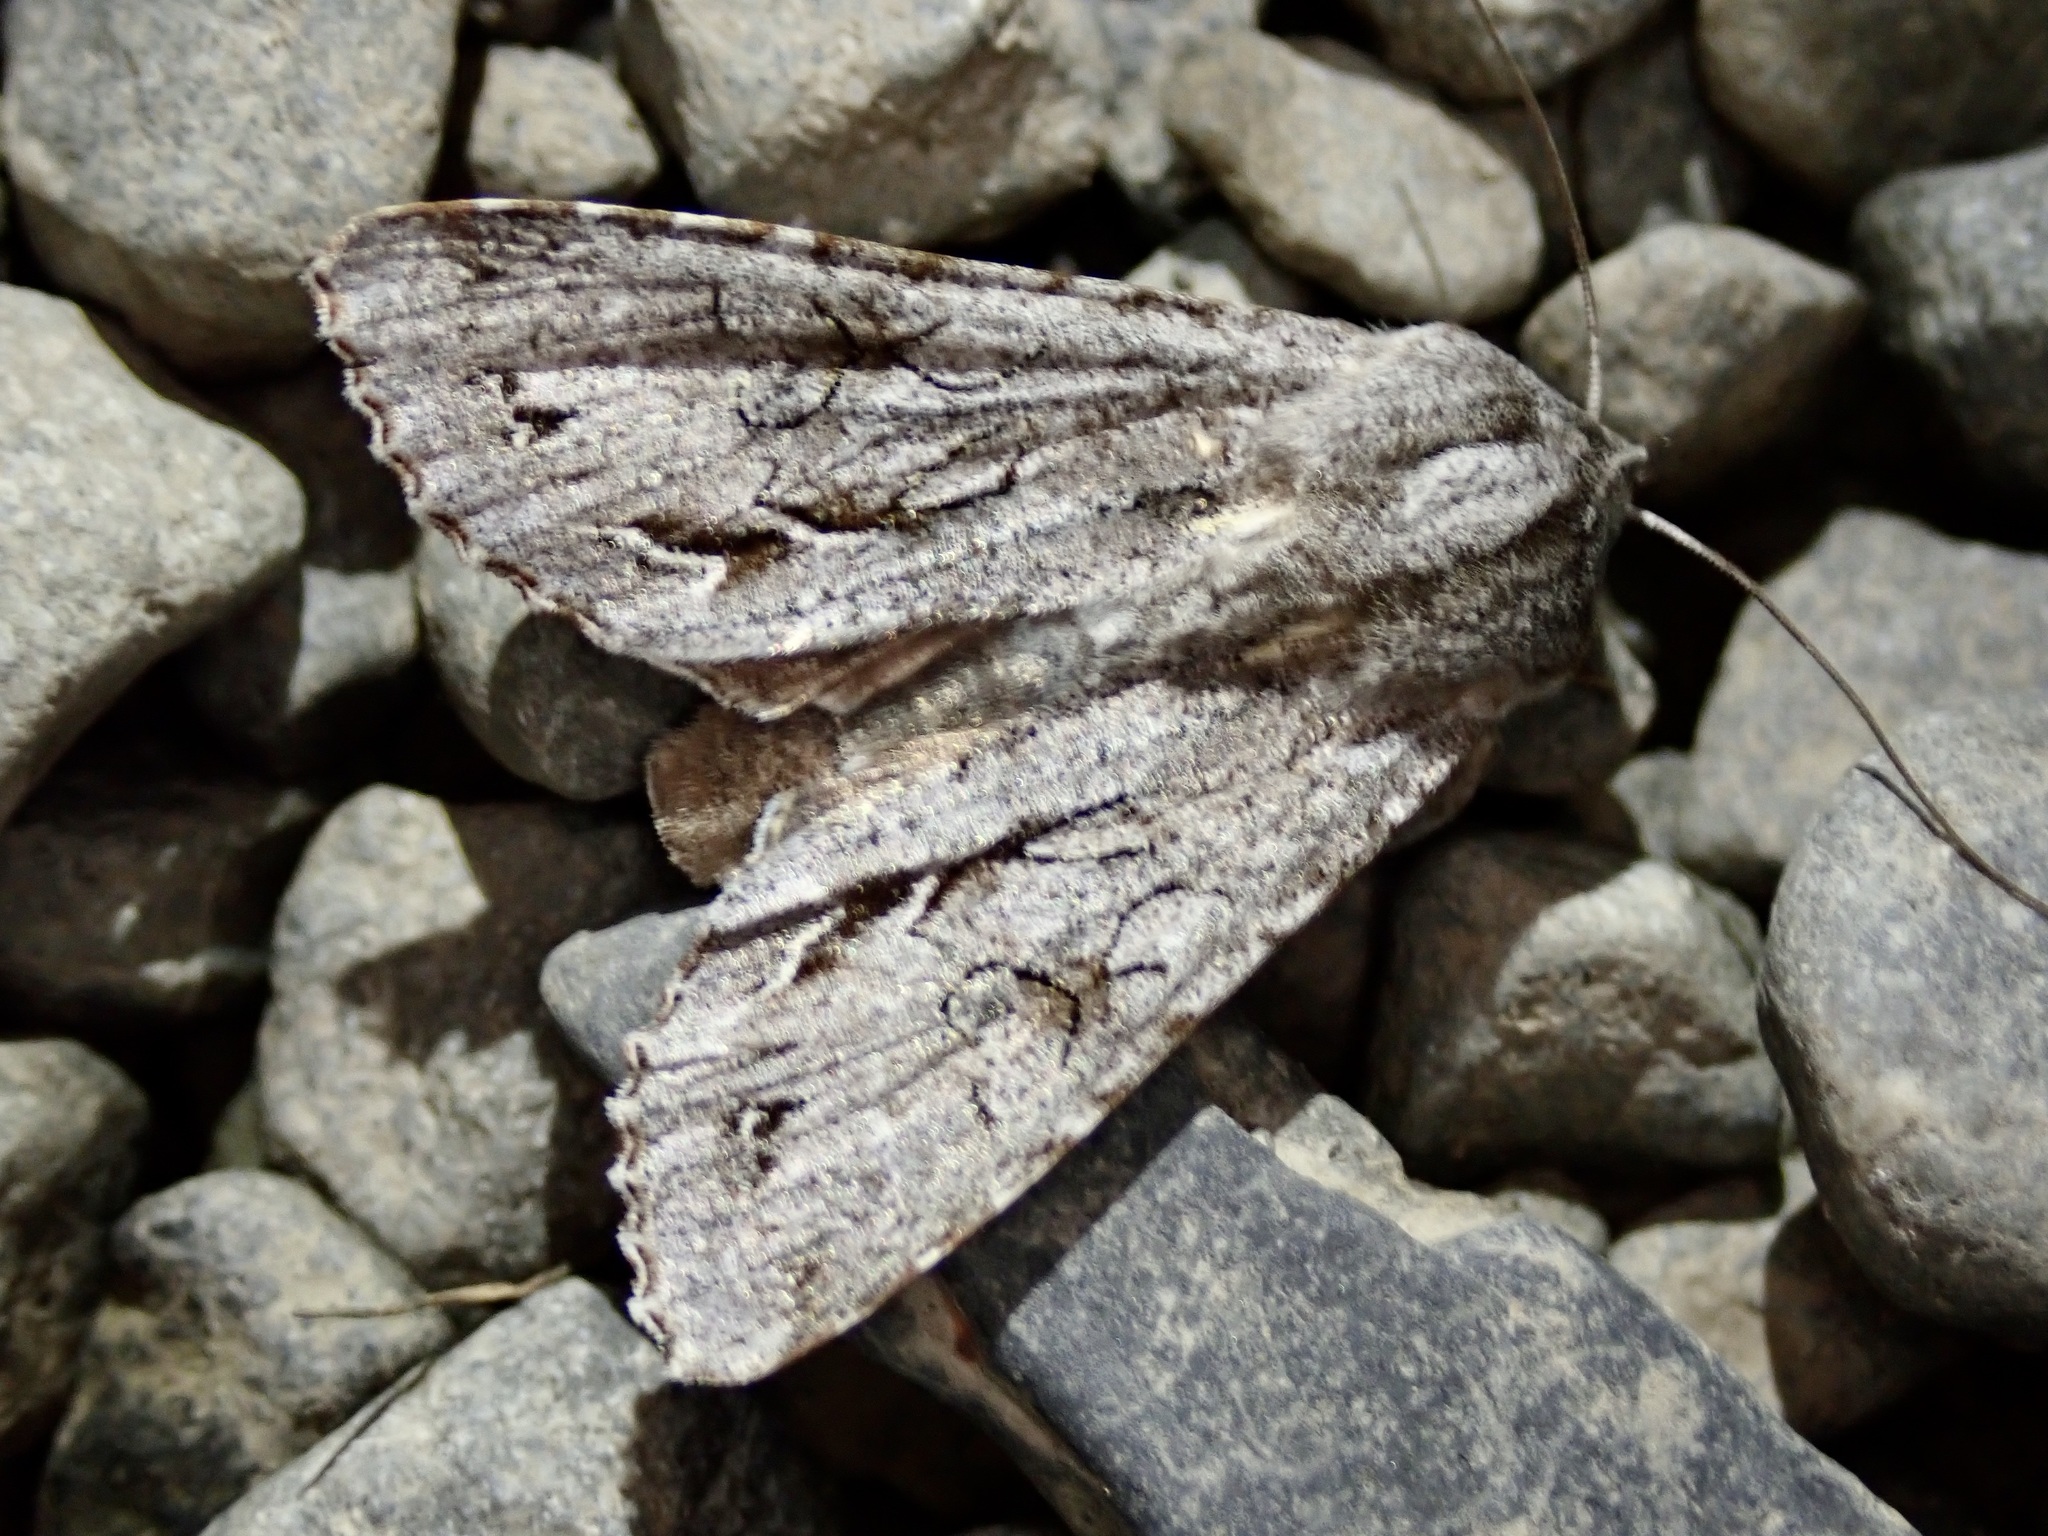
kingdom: Animalia
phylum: Arthropoda
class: Insecta
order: Lepidoptera
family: Noctuidae
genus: Ichneutica
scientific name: Ichneutica
